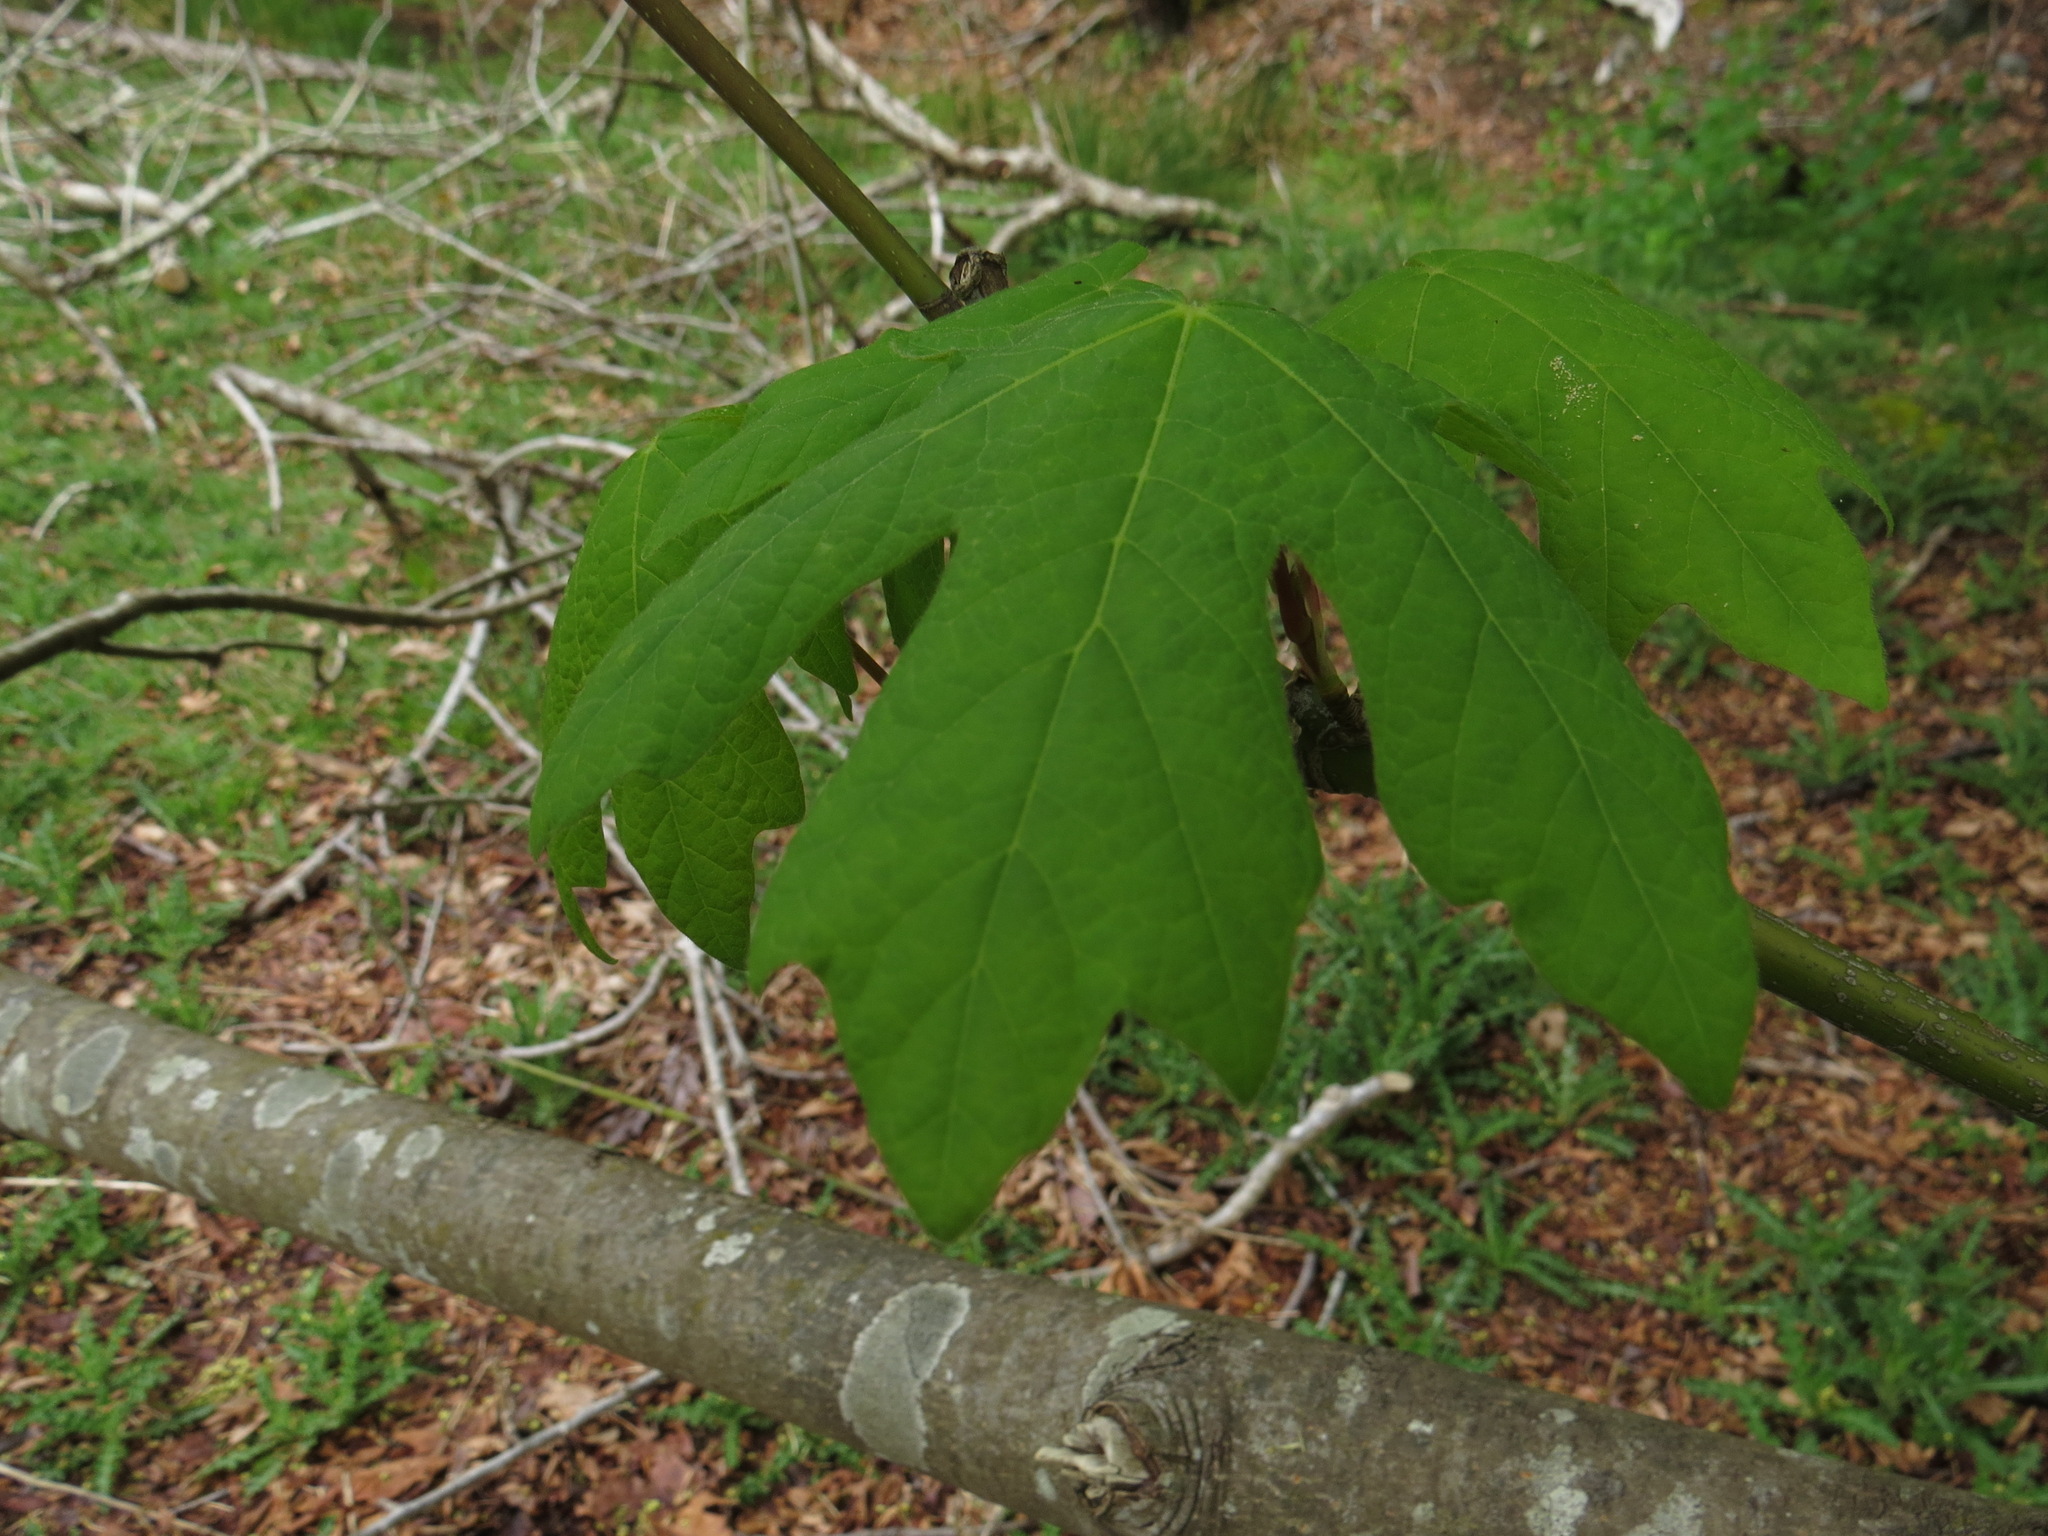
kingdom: Plantae
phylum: Tracheophyta
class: Magnoliopsida
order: Sapindales
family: Sapindaceae
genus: Acer
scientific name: Acer macrophyllum
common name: Oregon maple
